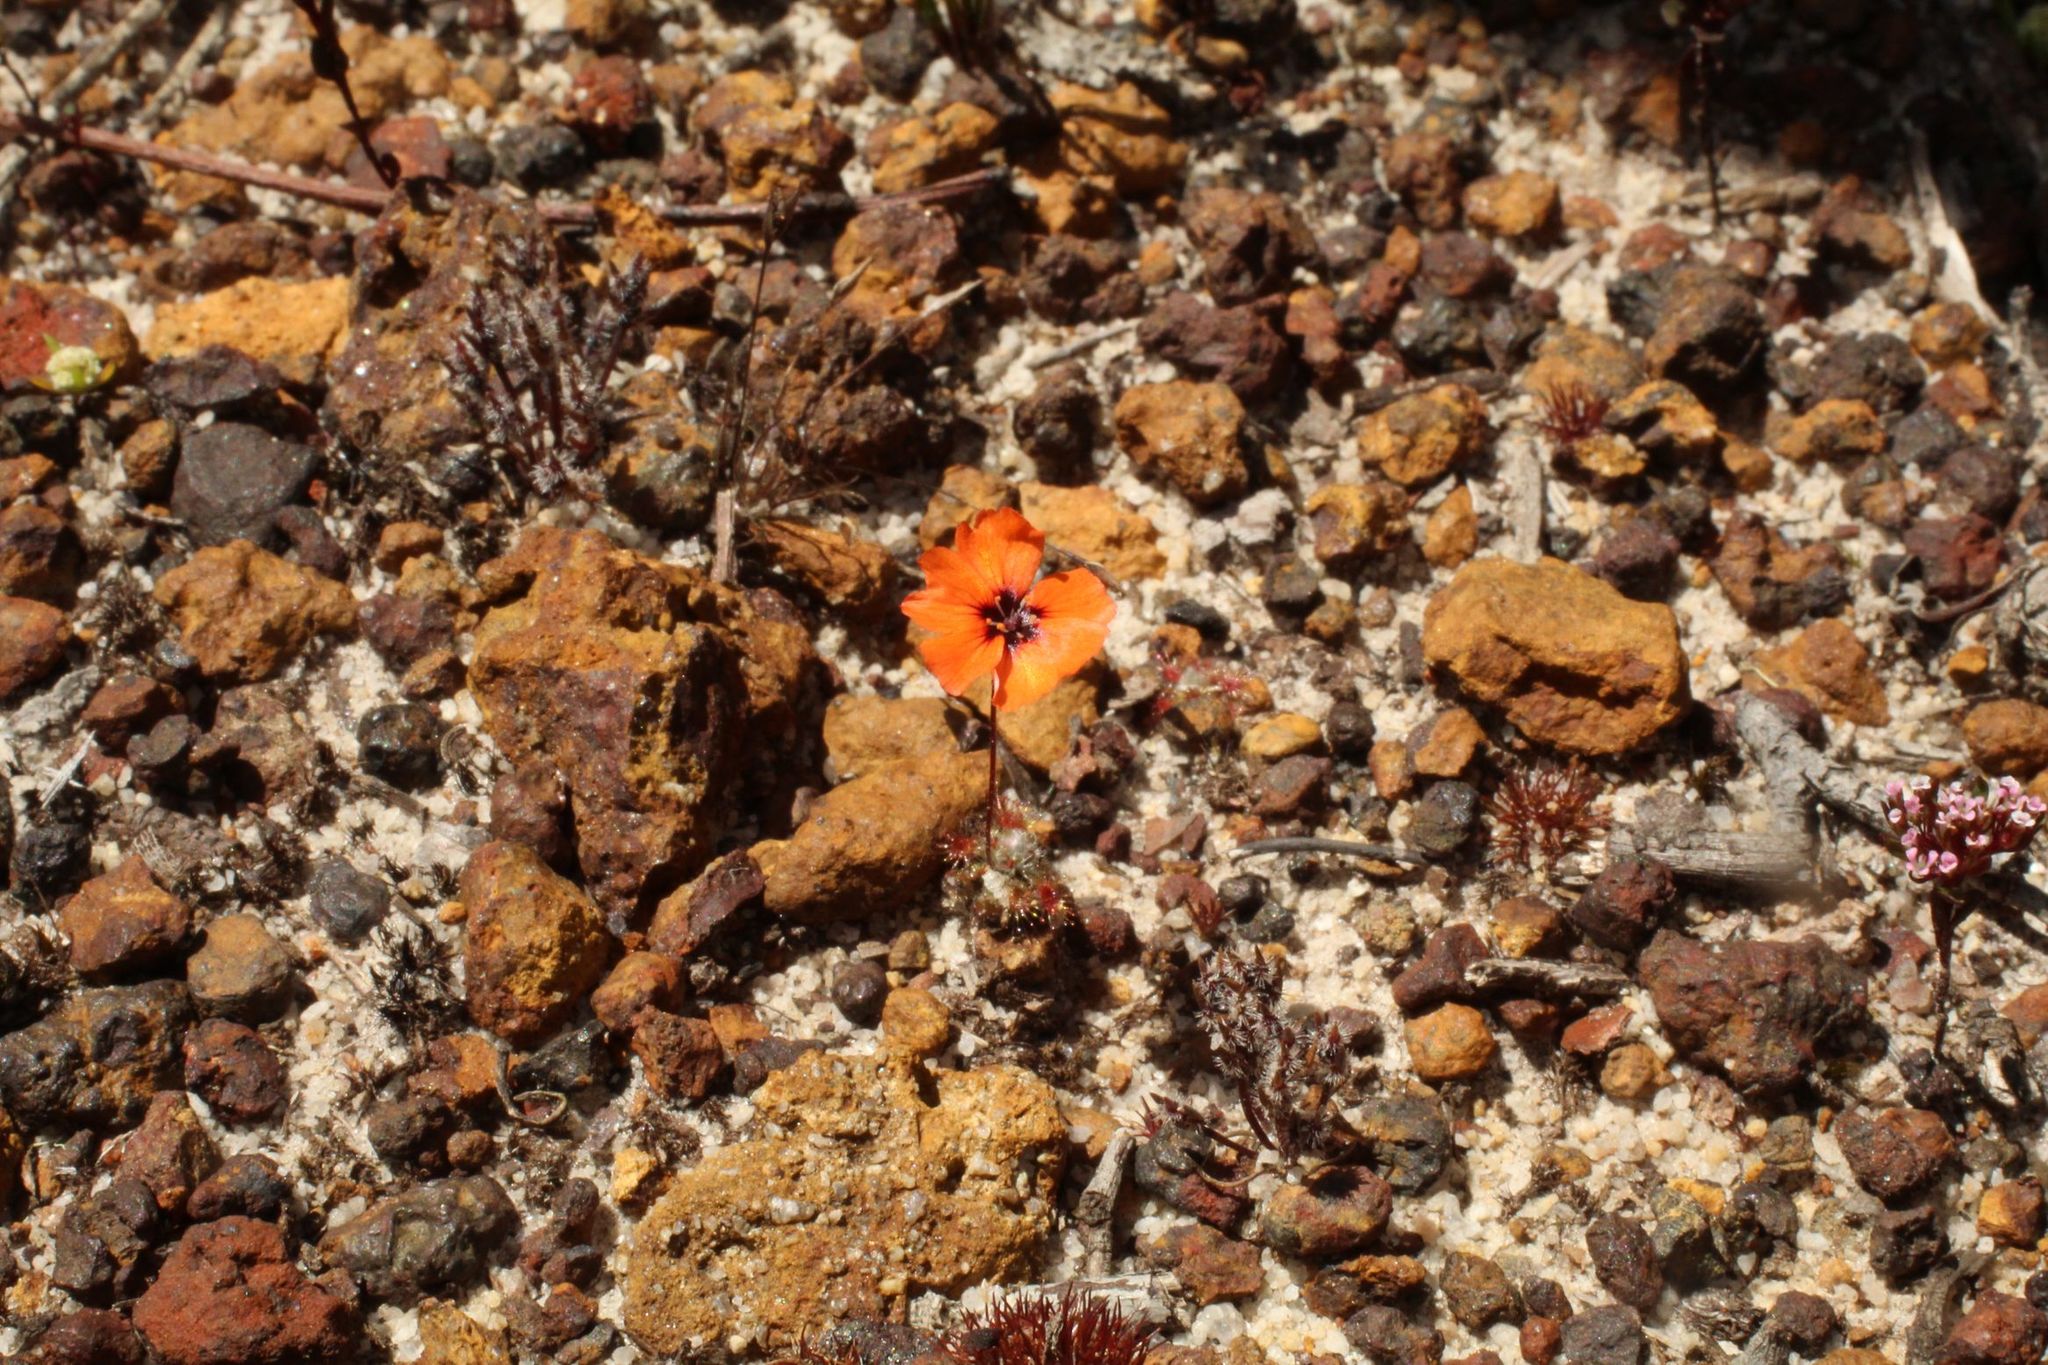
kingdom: Plantae
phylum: Tracheophyta
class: Magnoliopsida
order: Caryophyllales
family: Droseraceae
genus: Drosera
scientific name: Drosera platystigma
